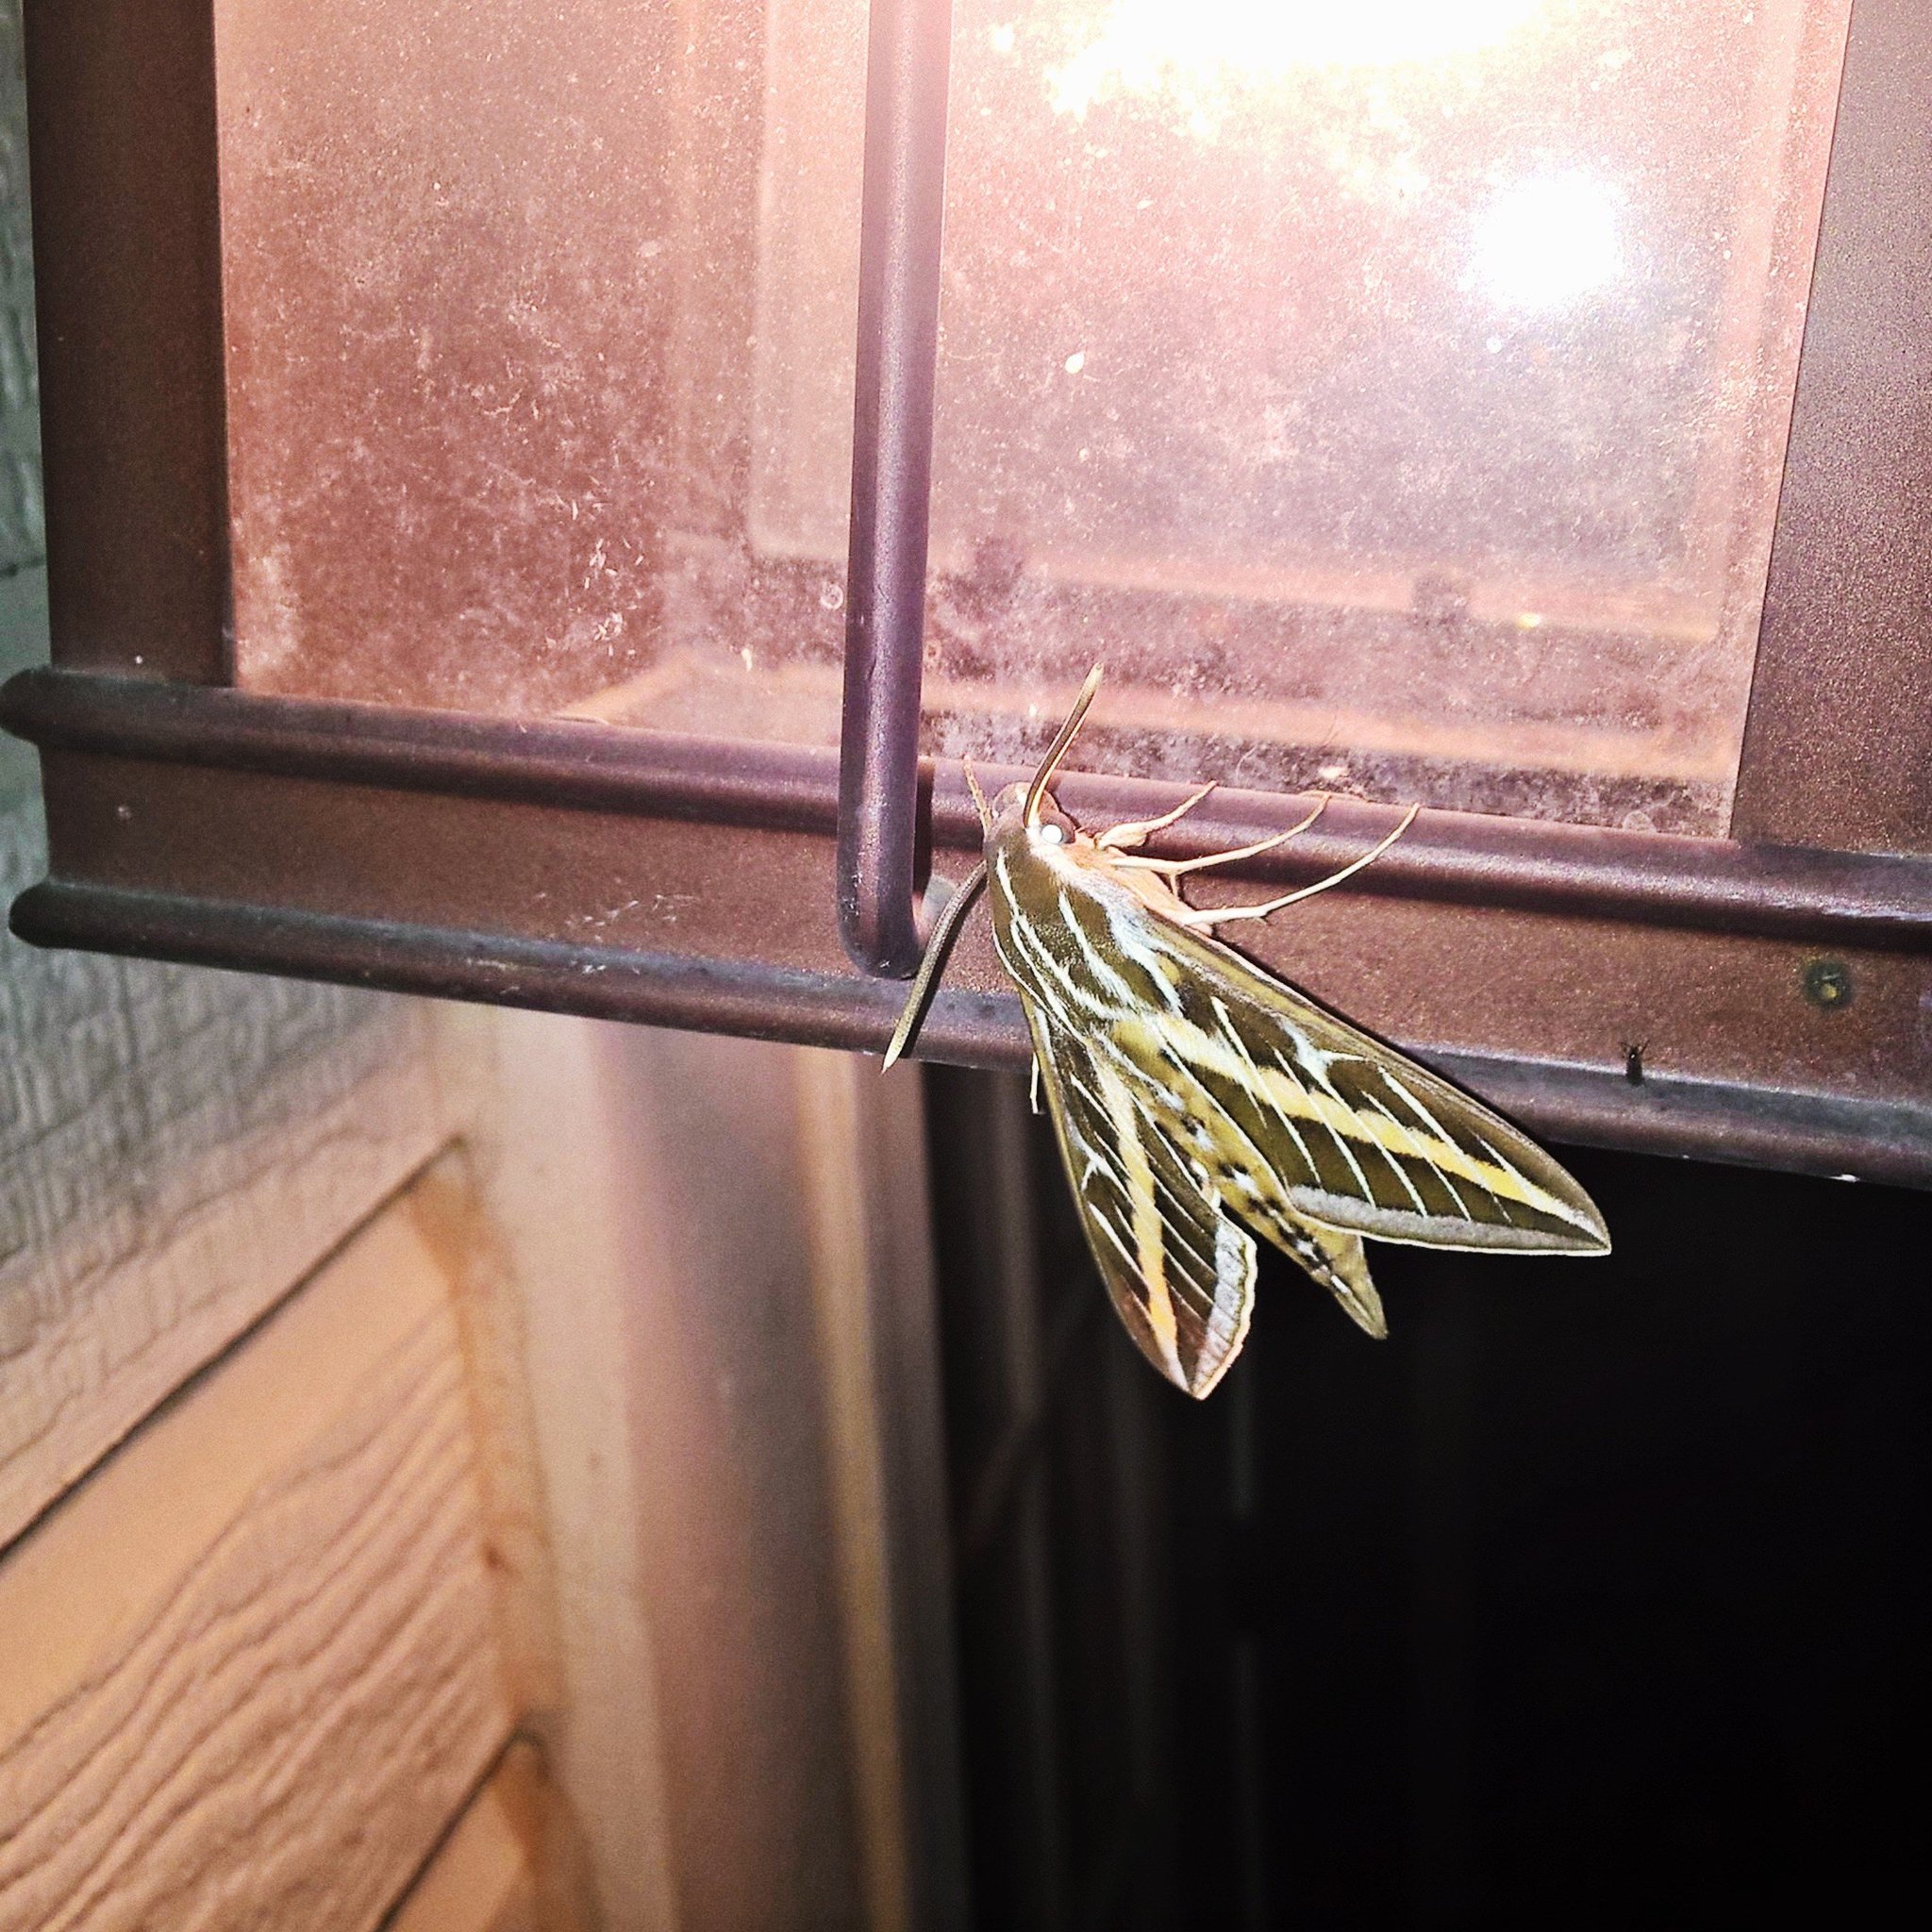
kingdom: Animalia
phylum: Arthropoda
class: Insecta
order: Lepidoptera
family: Sphingidae
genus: Hyles
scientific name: Hyles lineata
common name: White-lined sphinx
